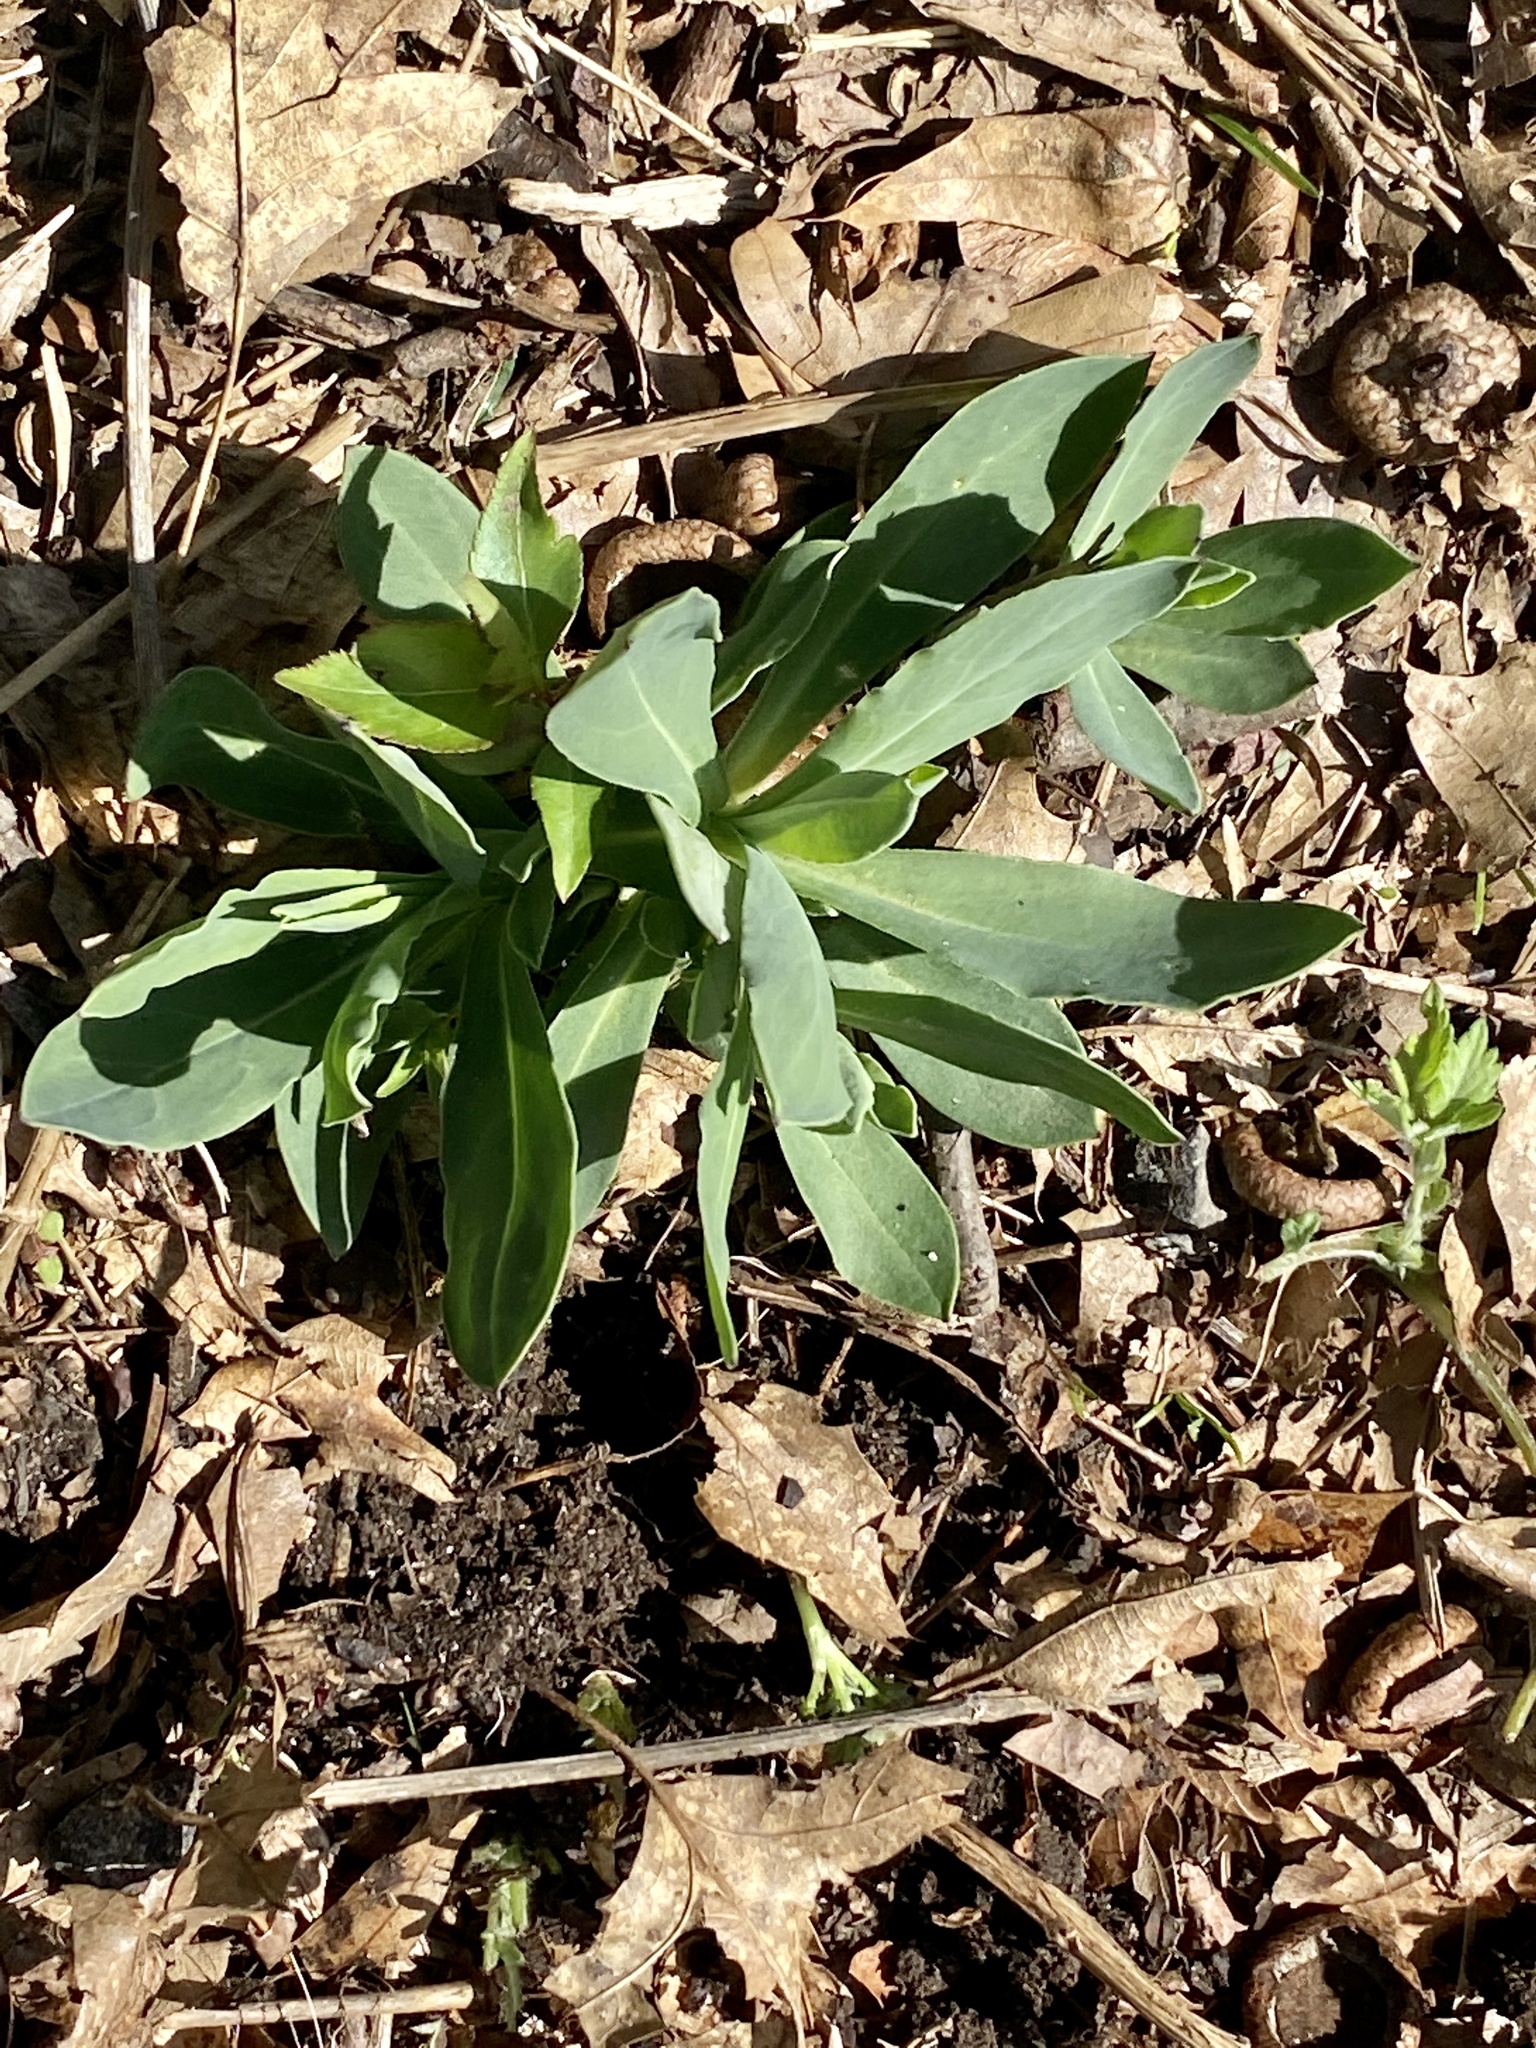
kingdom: Plantae
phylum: Tracheophyta
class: Magnoliopsida
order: Caryophyllales
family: Caryophyllaceae
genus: Silene
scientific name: Silene vulgaris
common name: Bladder campion
